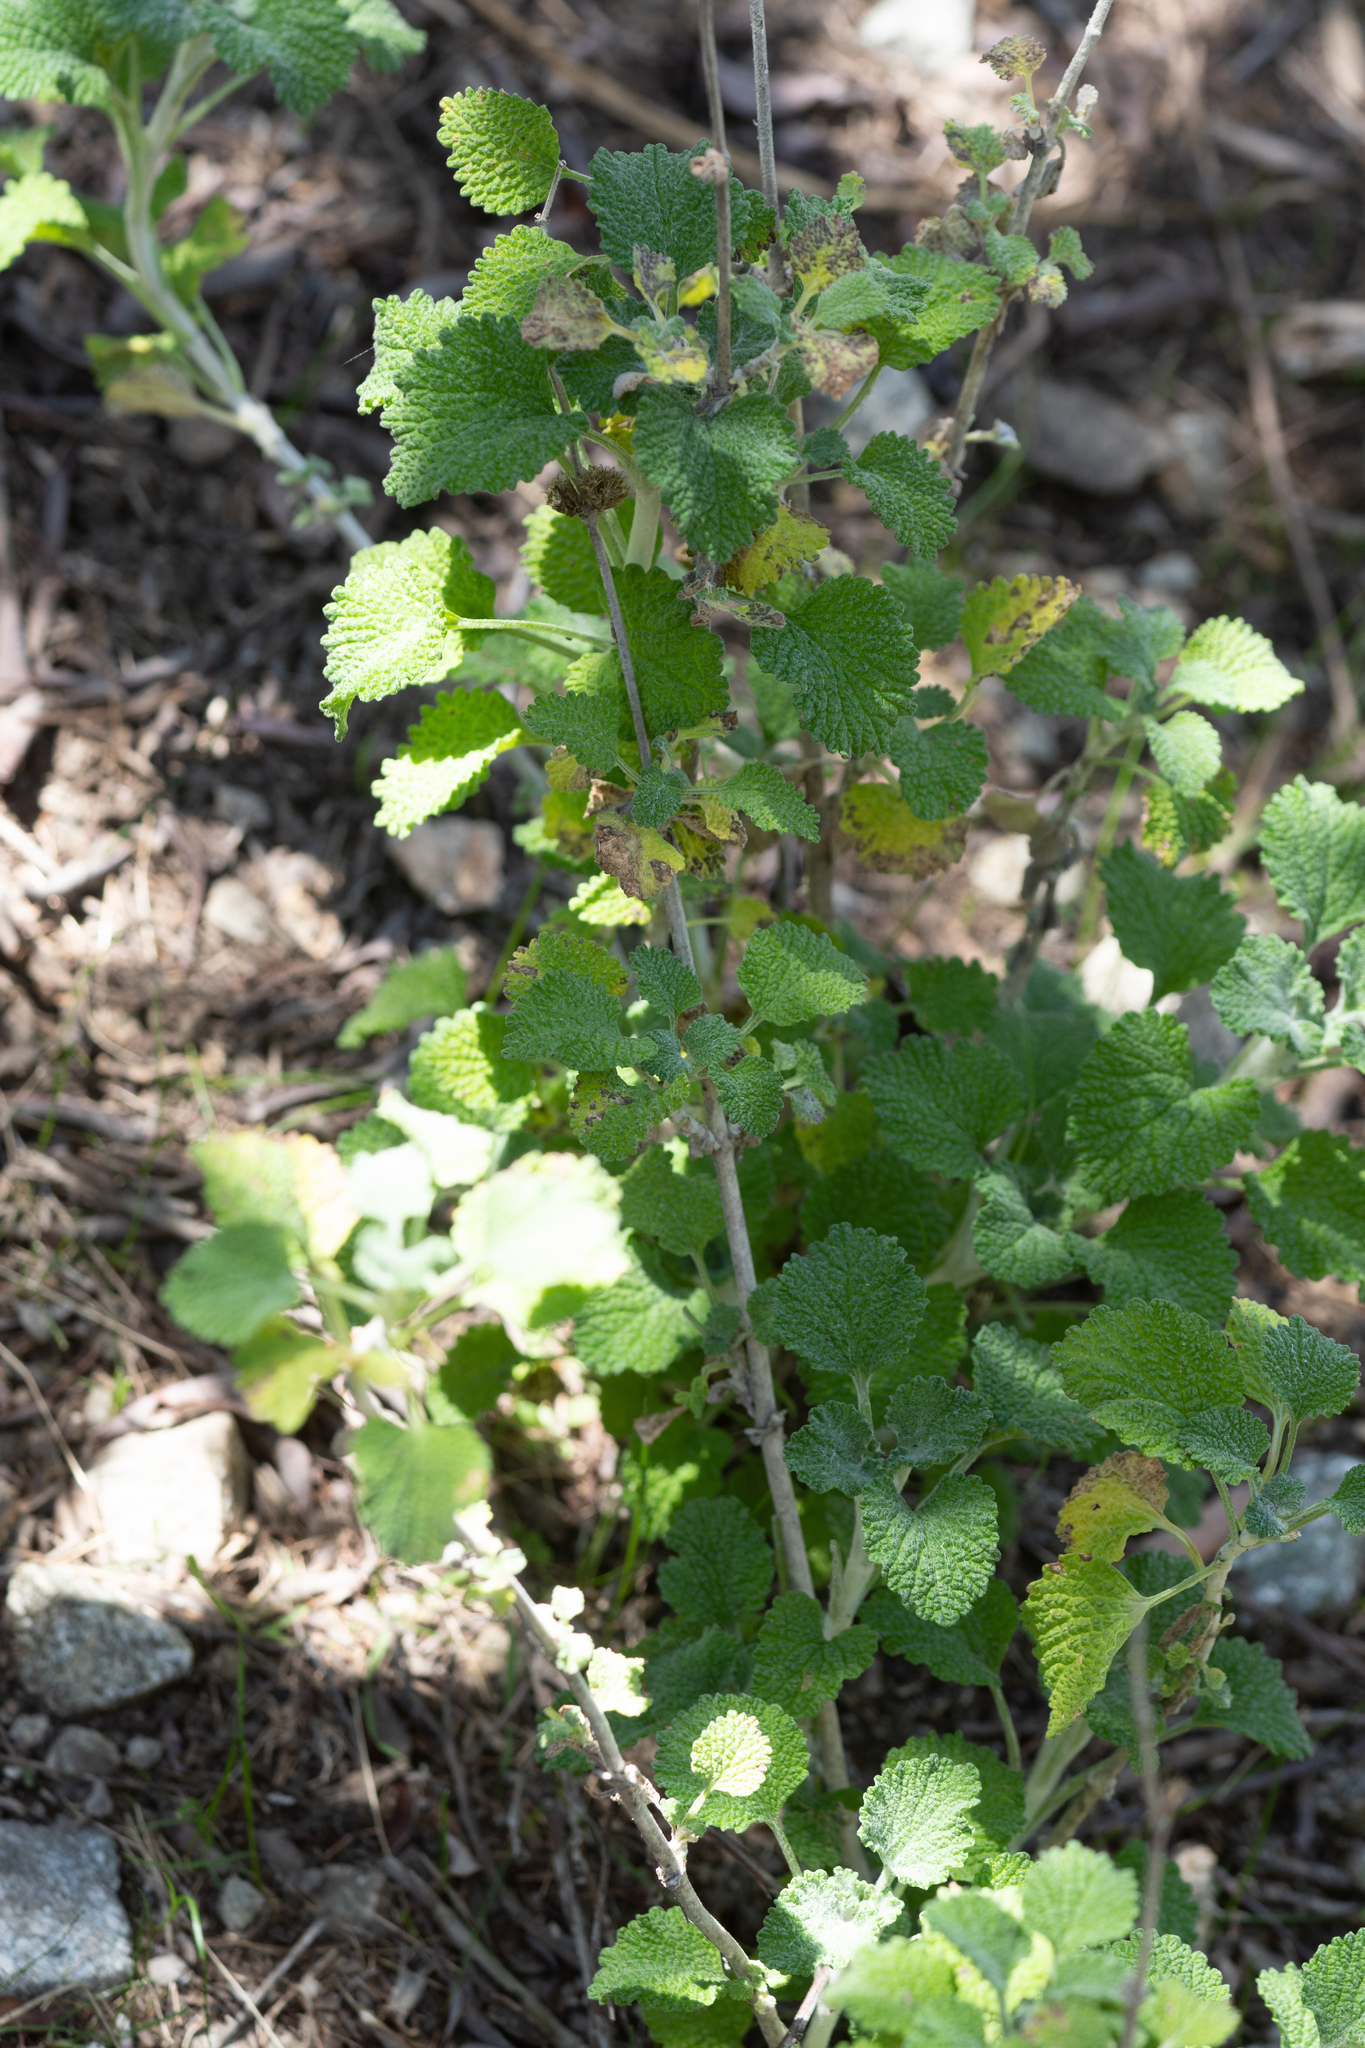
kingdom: Plantae
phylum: Tracheophyta
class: Magnoliopsida
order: Lamiales
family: Lamiaceae
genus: Marrubium
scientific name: Marrubium vulgare
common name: Horehound
